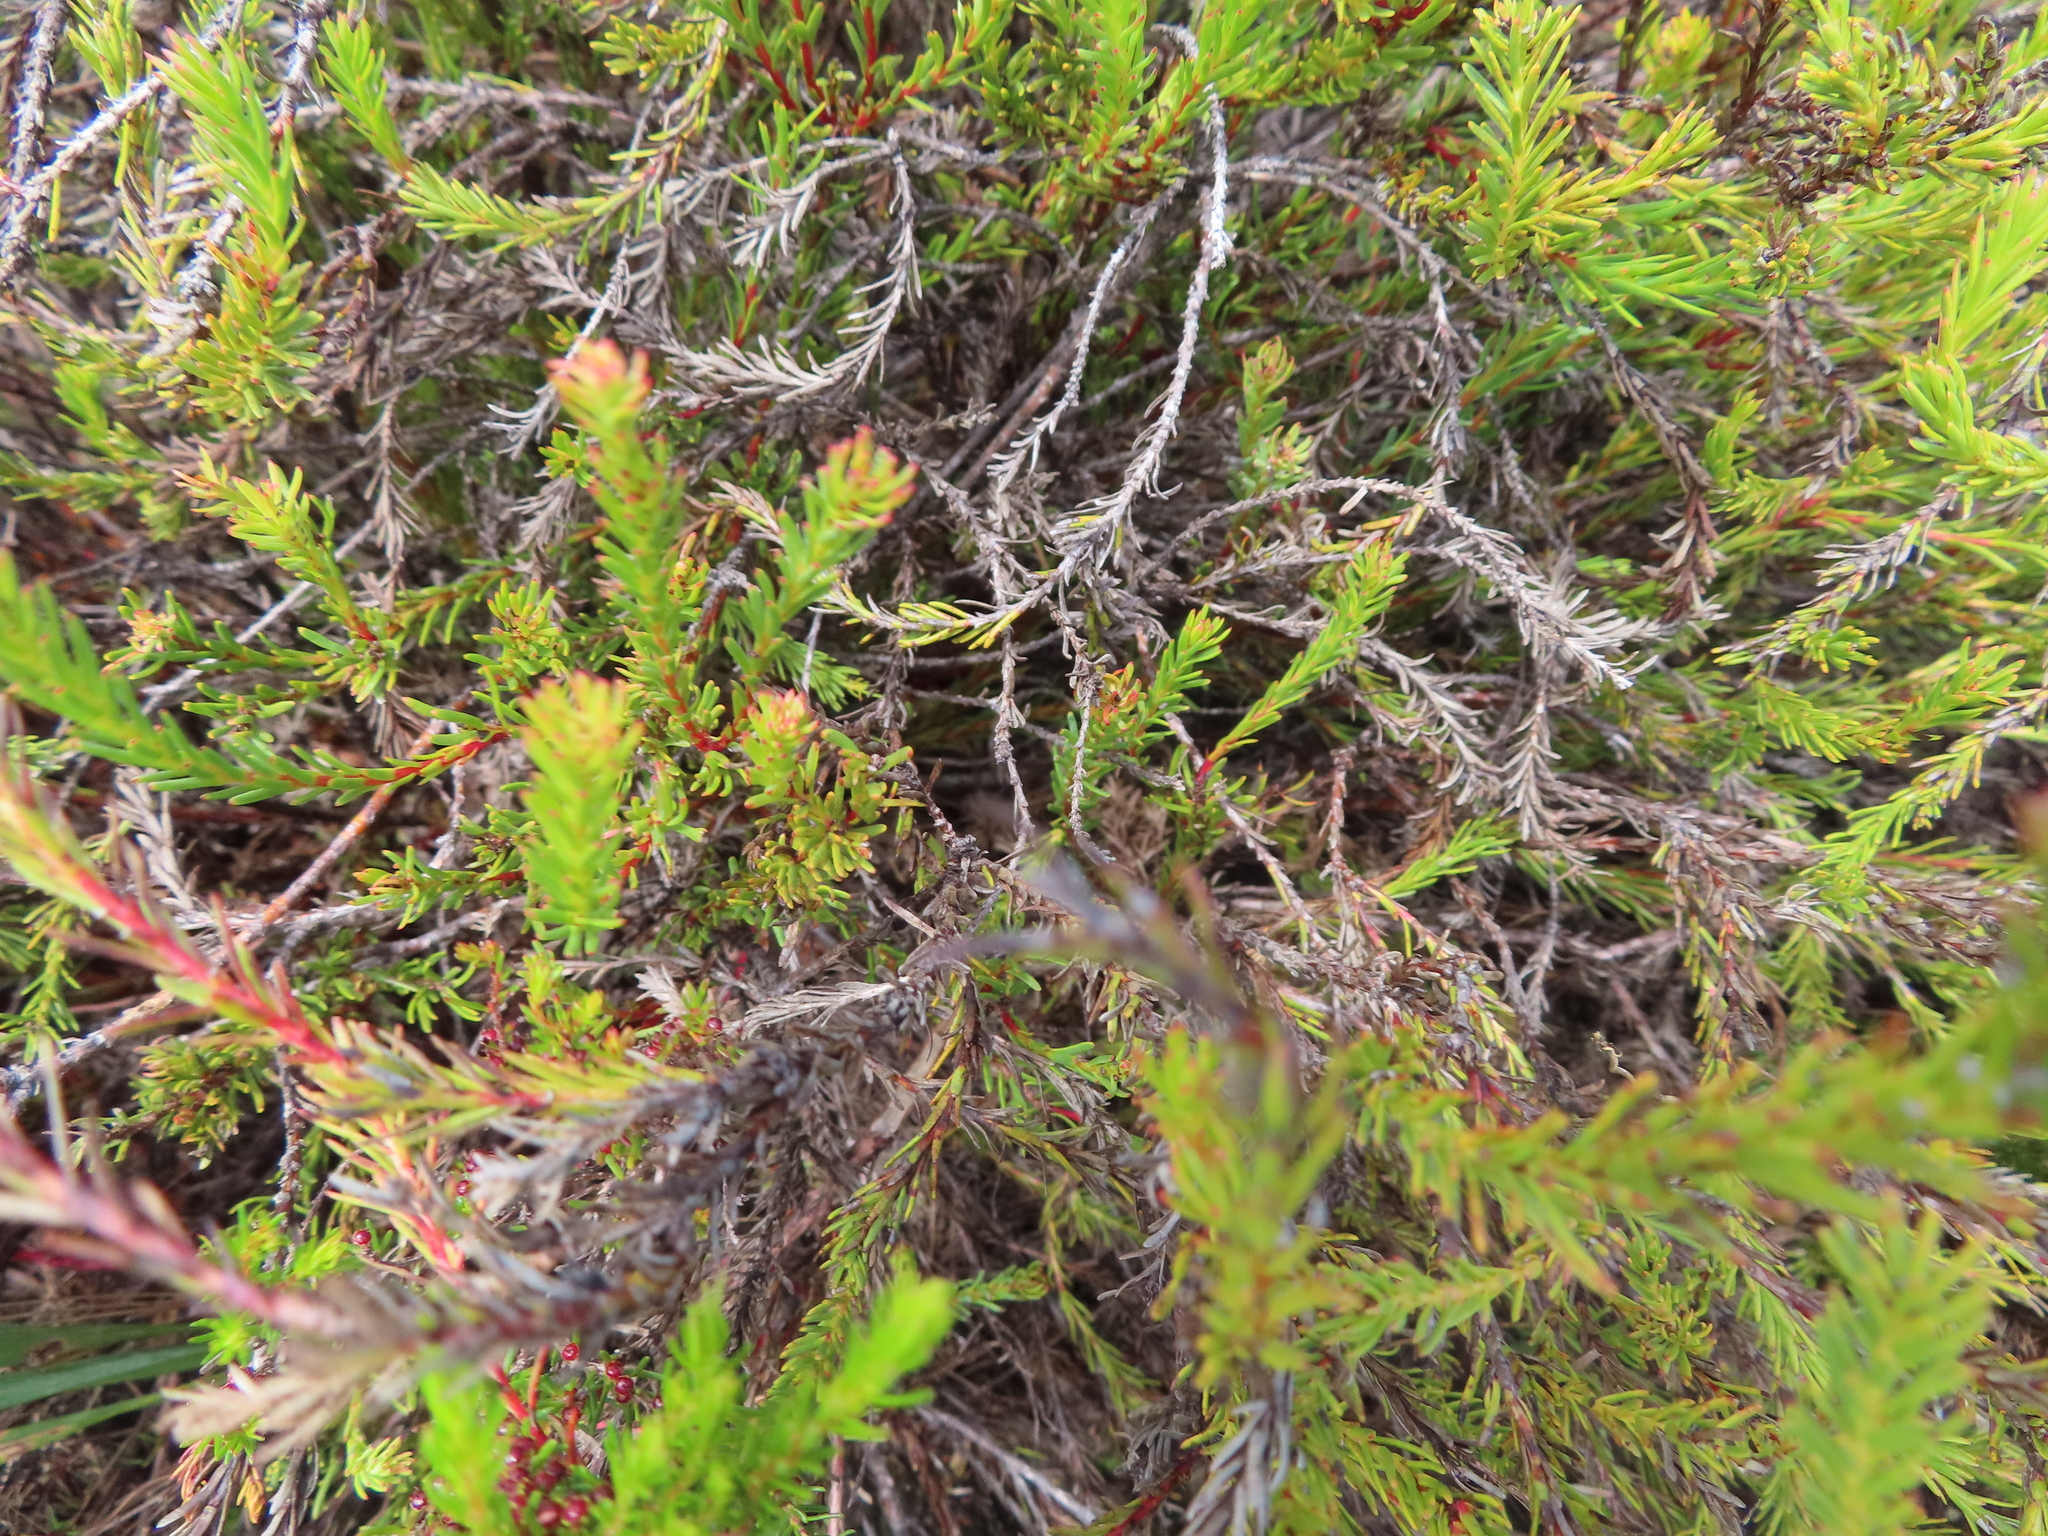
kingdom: Plantae
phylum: Tracheophyta
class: Magnoliopsida
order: Proteales
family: Proteaceae
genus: Protea
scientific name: Protea subulifolia
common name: Awl-leaf sugarbush
